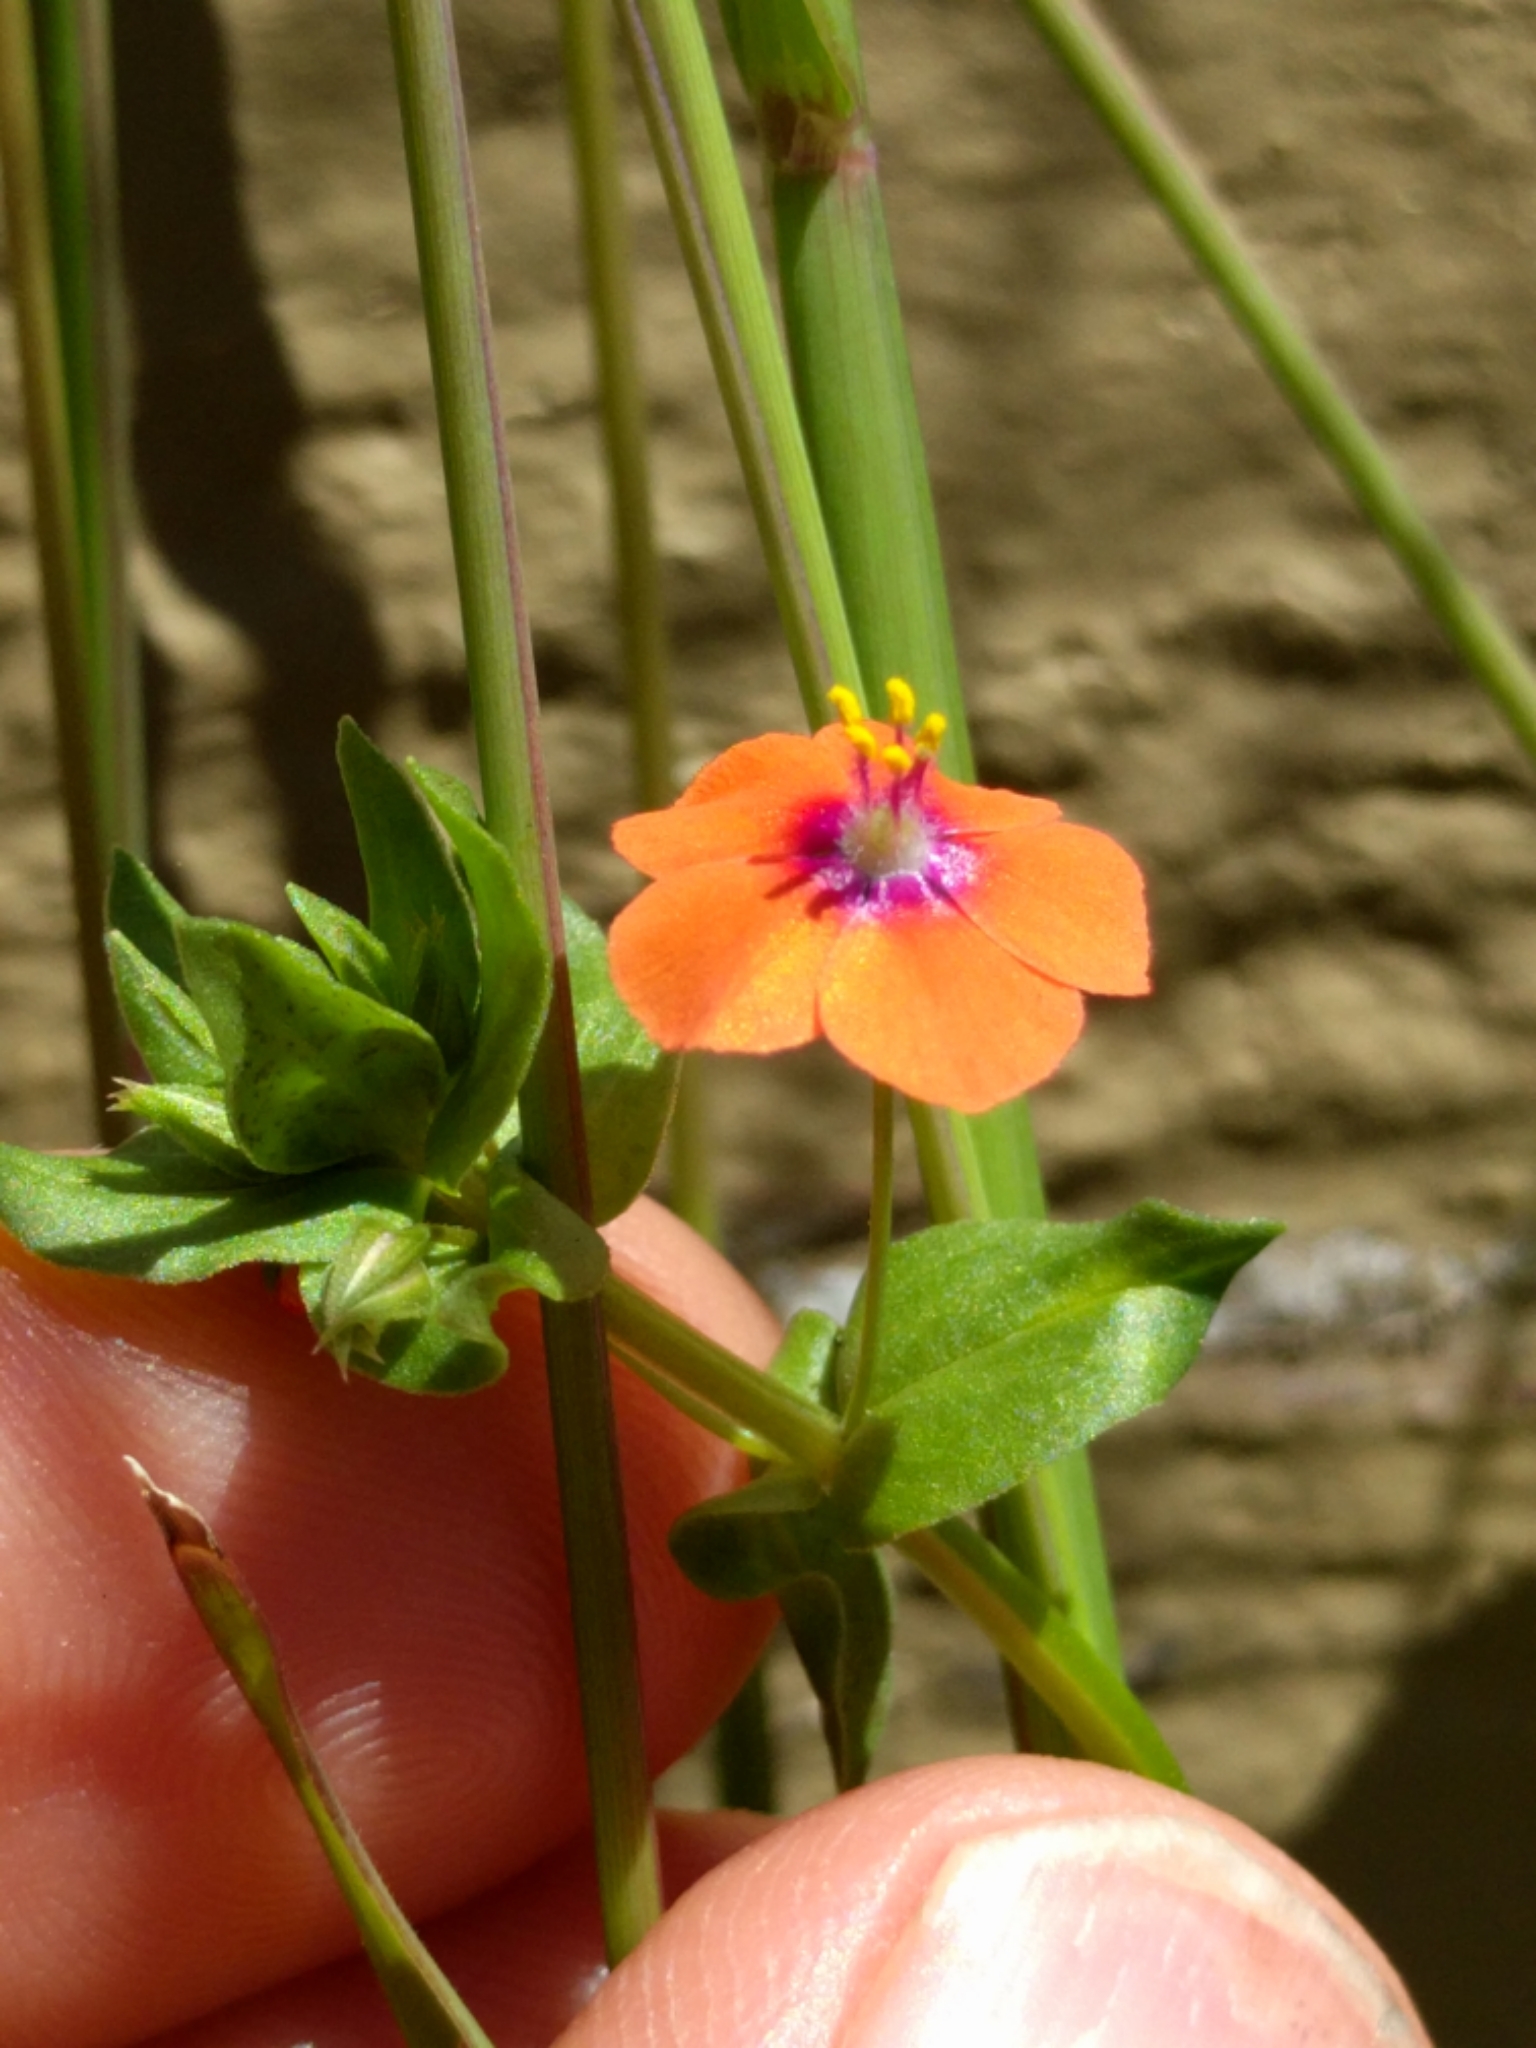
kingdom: Plantae
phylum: Tracheophyta
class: Magnoliopsida
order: Ericales
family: Primulaceae
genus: Lysimachia
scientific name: Lysimachia arvensis
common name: Scarlet pimpernel
